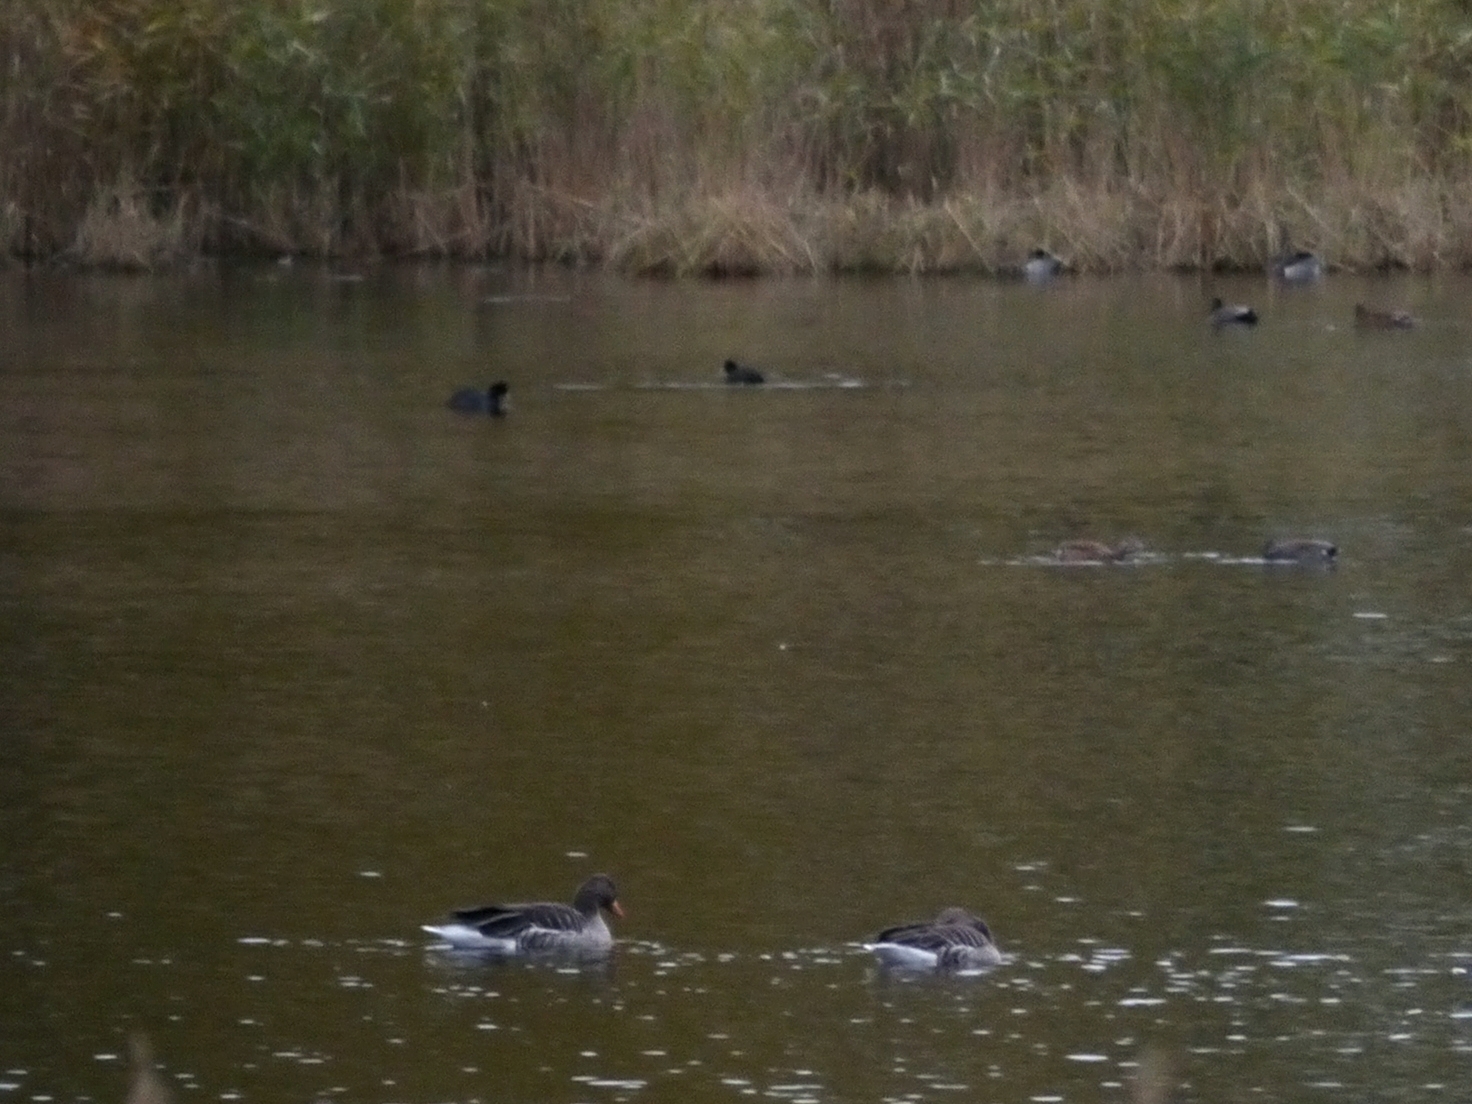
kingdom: Animalia
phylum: Chordata
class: Aves
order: Gruiformes
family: Rallidae
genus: Fulica
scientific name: Fulica atra
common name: Eurasian coot
